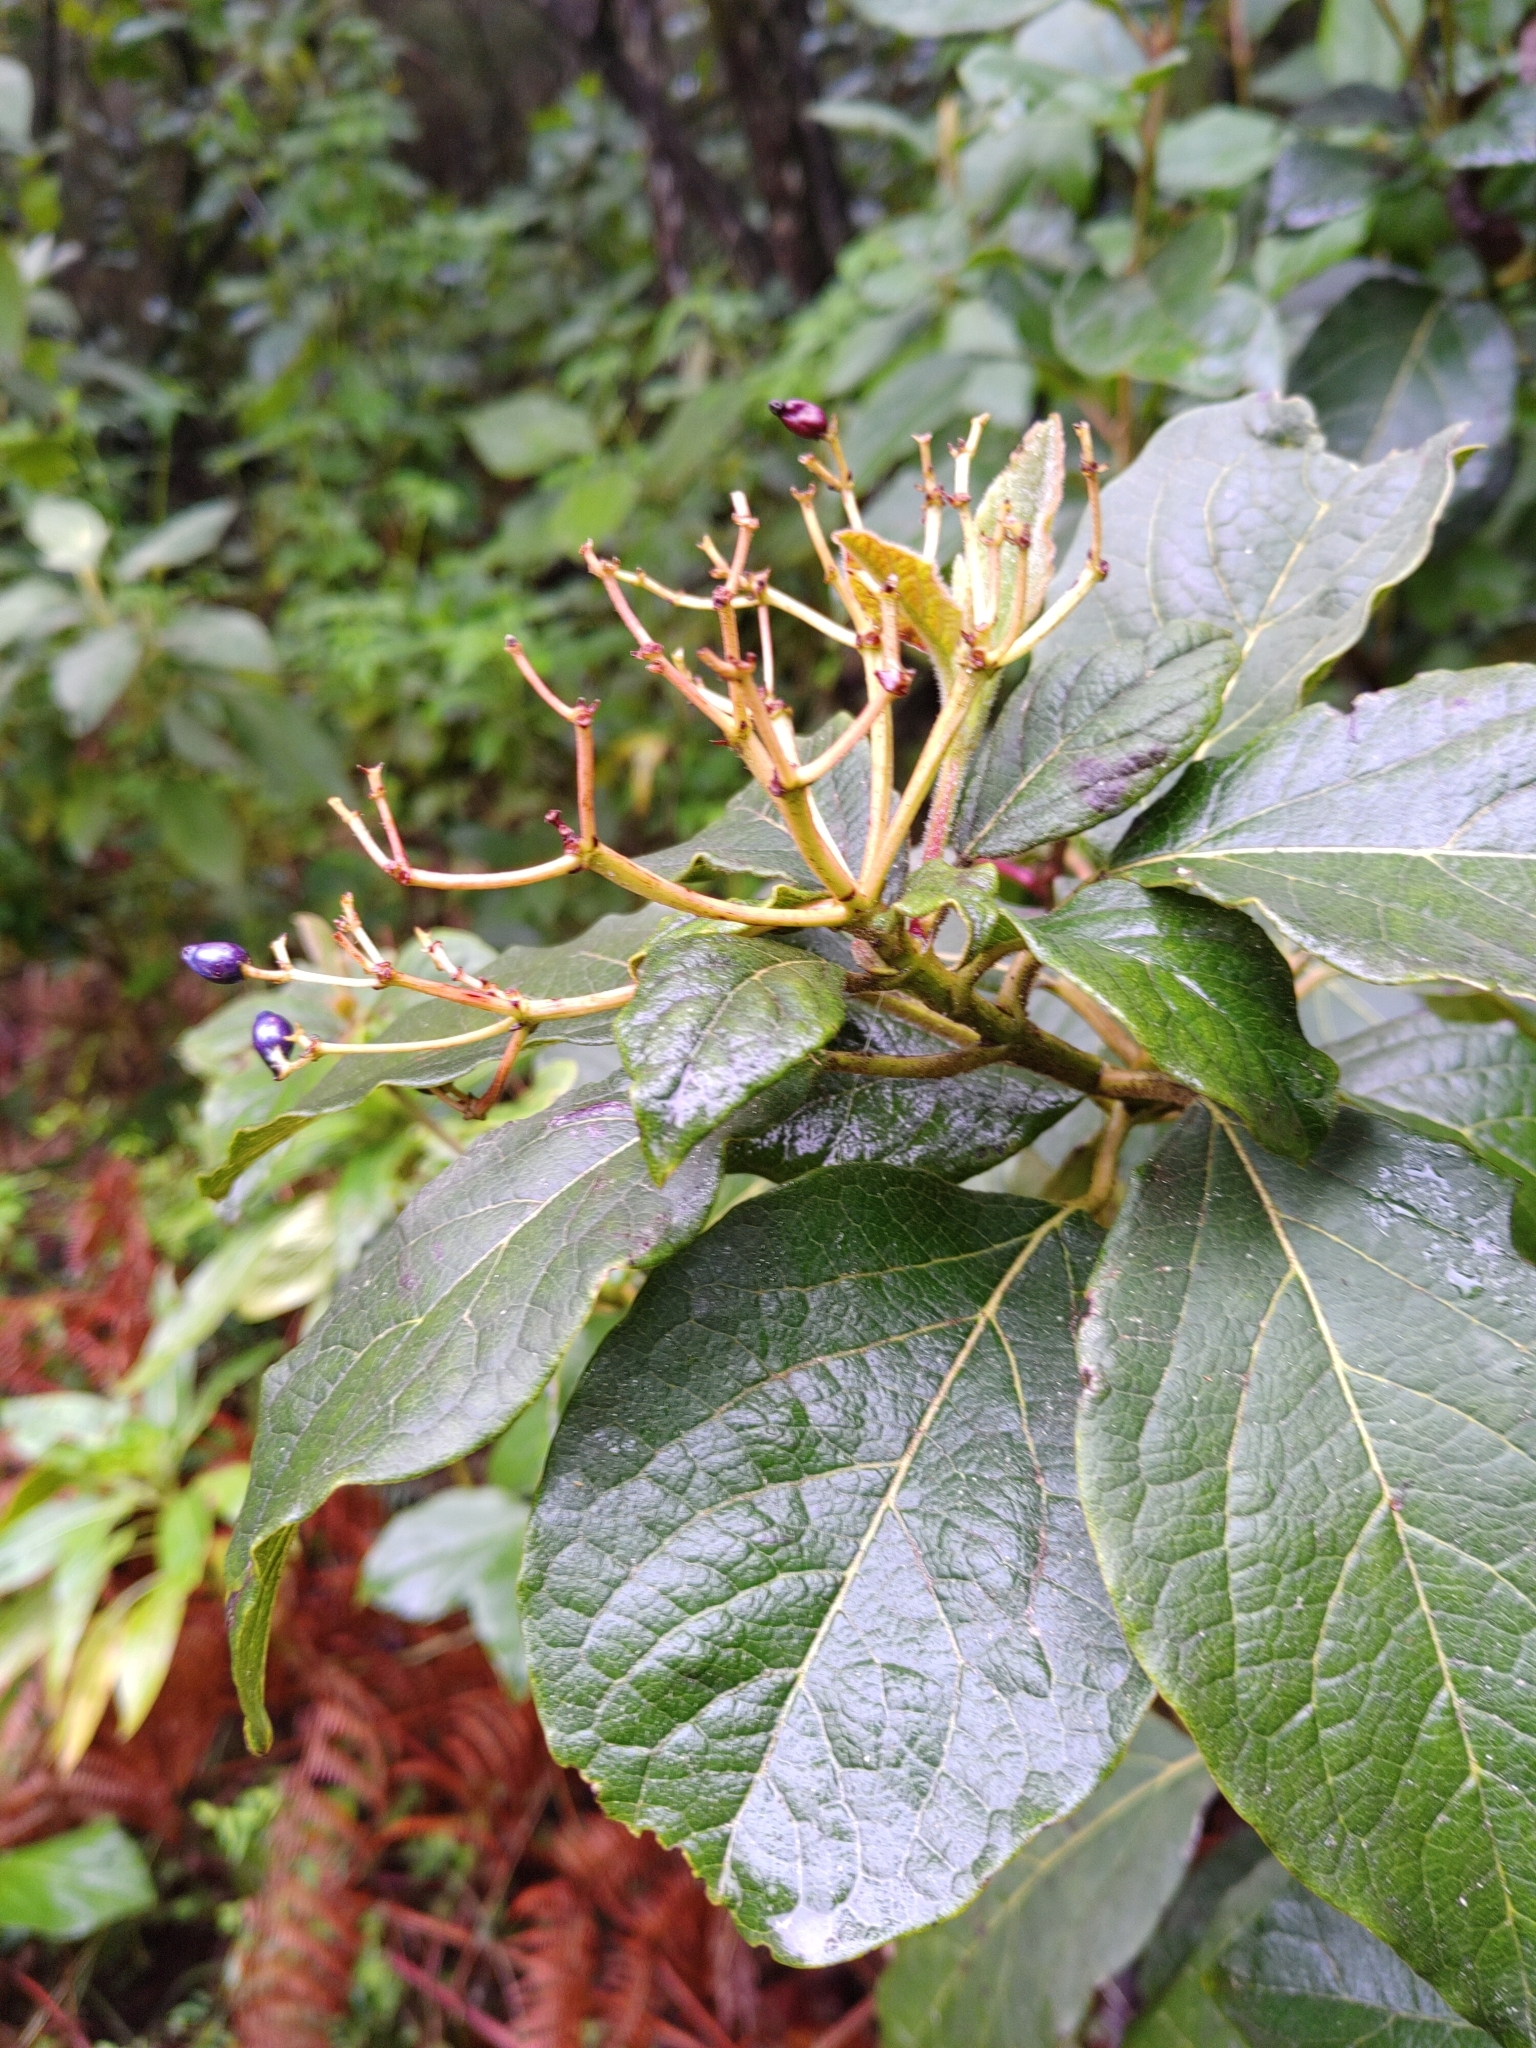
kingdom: Plantae
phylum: Tracheophyta
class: Magnoliopsida
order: Dipsacales
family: Viburnaceae
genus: Viburnum
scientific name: Viburnum rugosum
